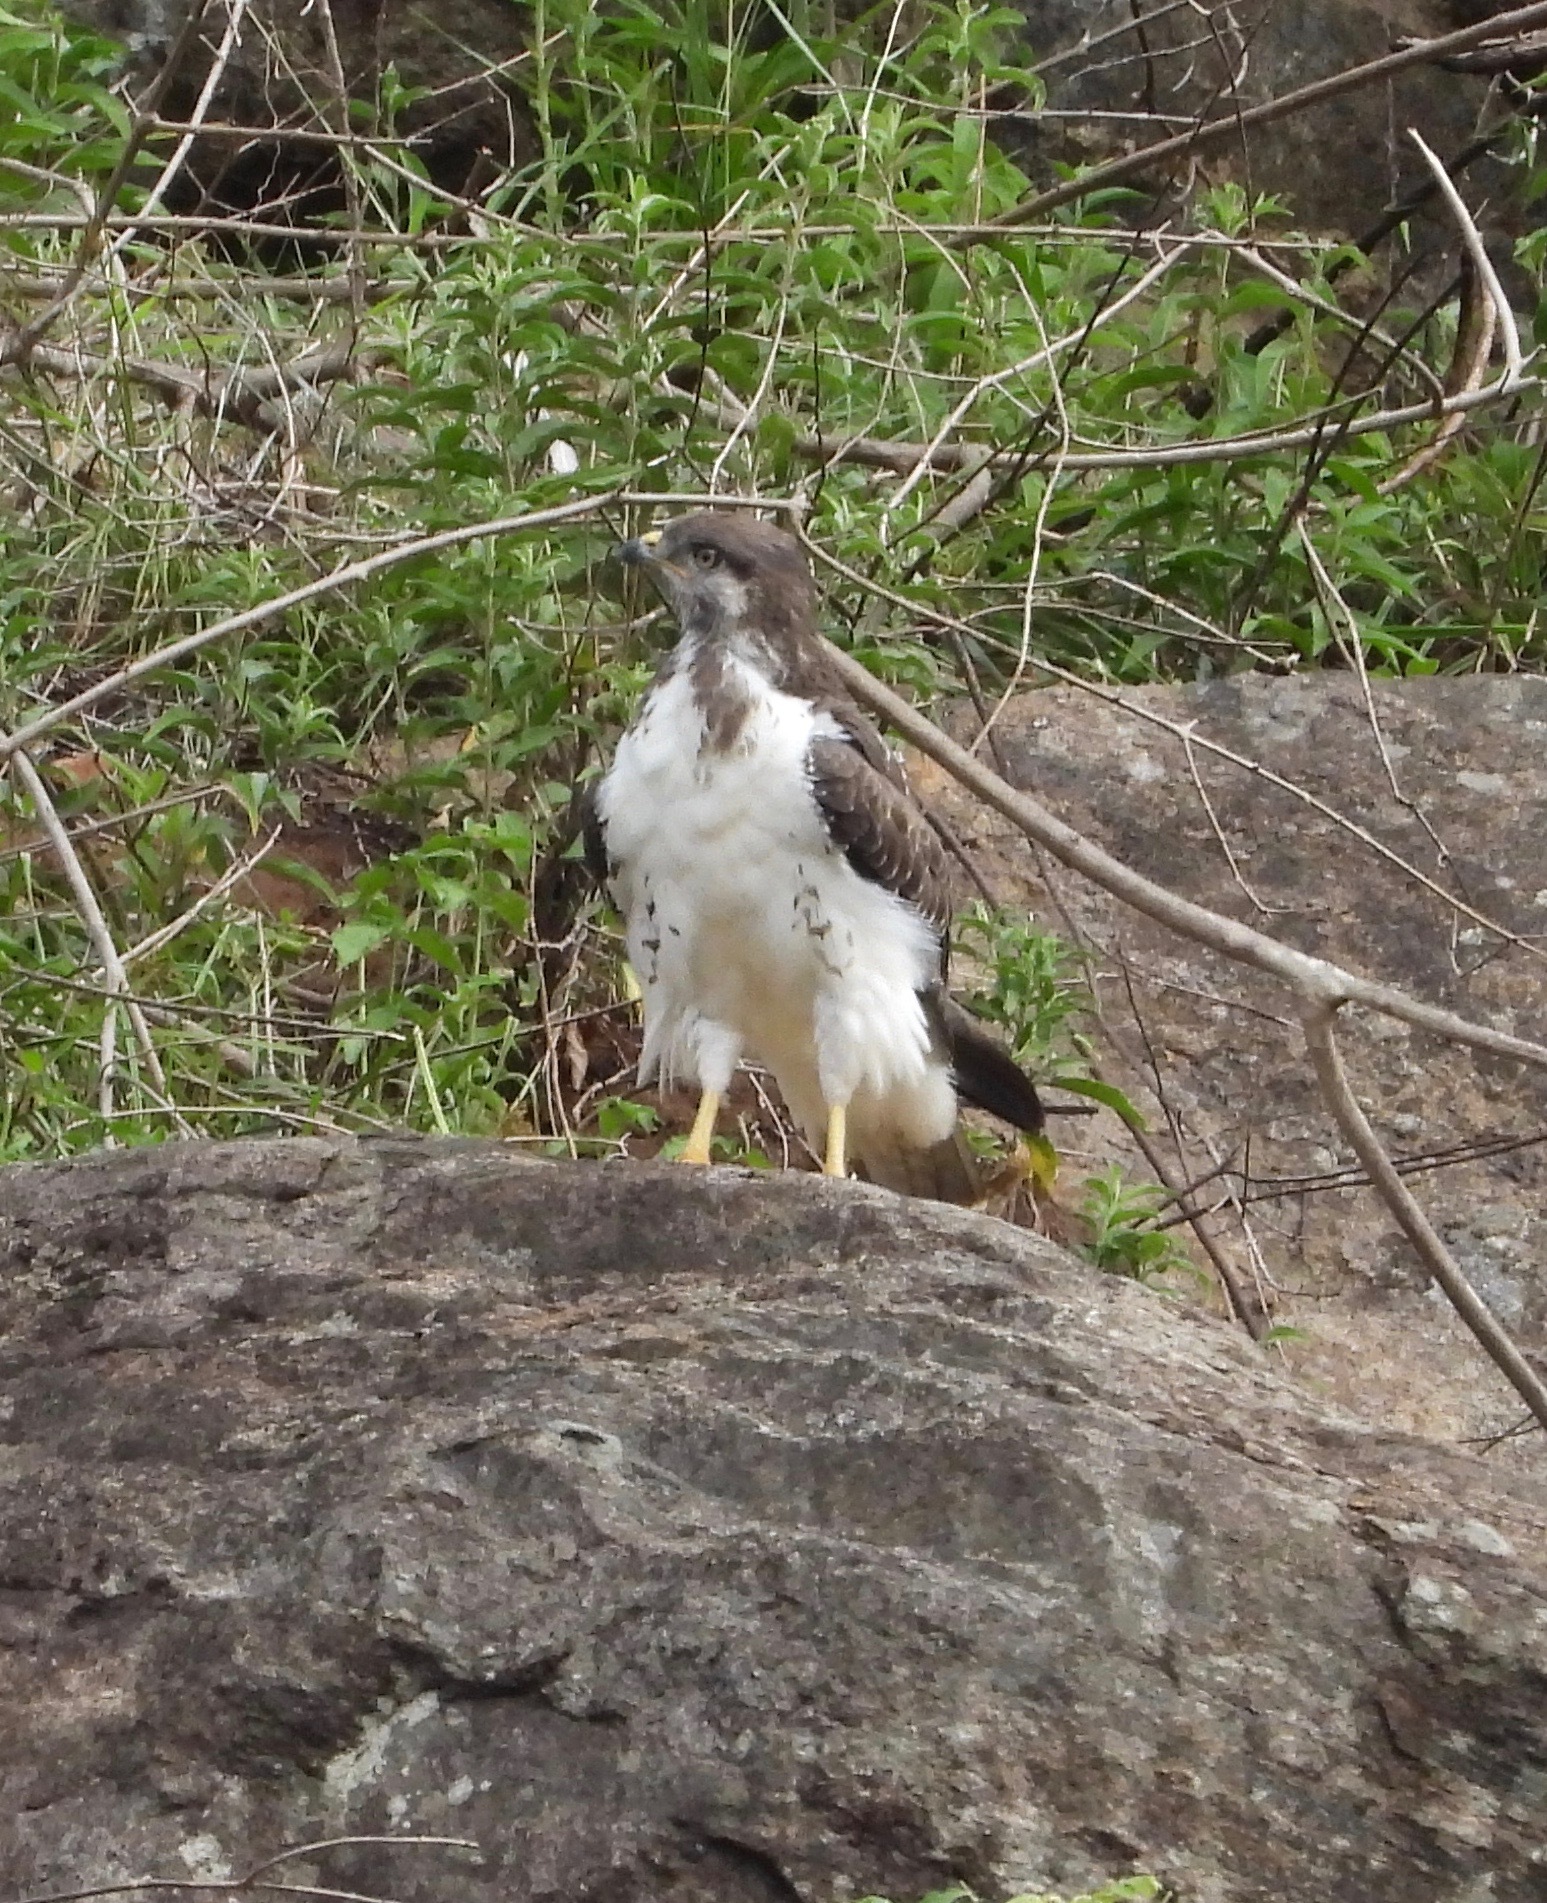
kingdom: Animalia
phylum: Chordata
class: Aves
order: Accipitriformes
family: Accipitridae
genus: Buteo
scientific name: Buteo augur
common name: Augur buzzard
